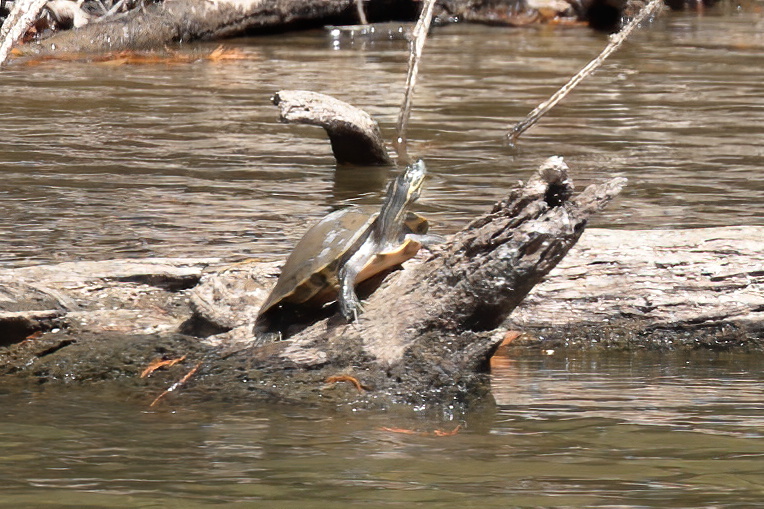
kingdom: Animalia
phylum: Chordata
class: Testudines
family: Emydidae
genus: Pseudemys
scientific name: Pseudemys concinna
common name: Eastern river cooter
